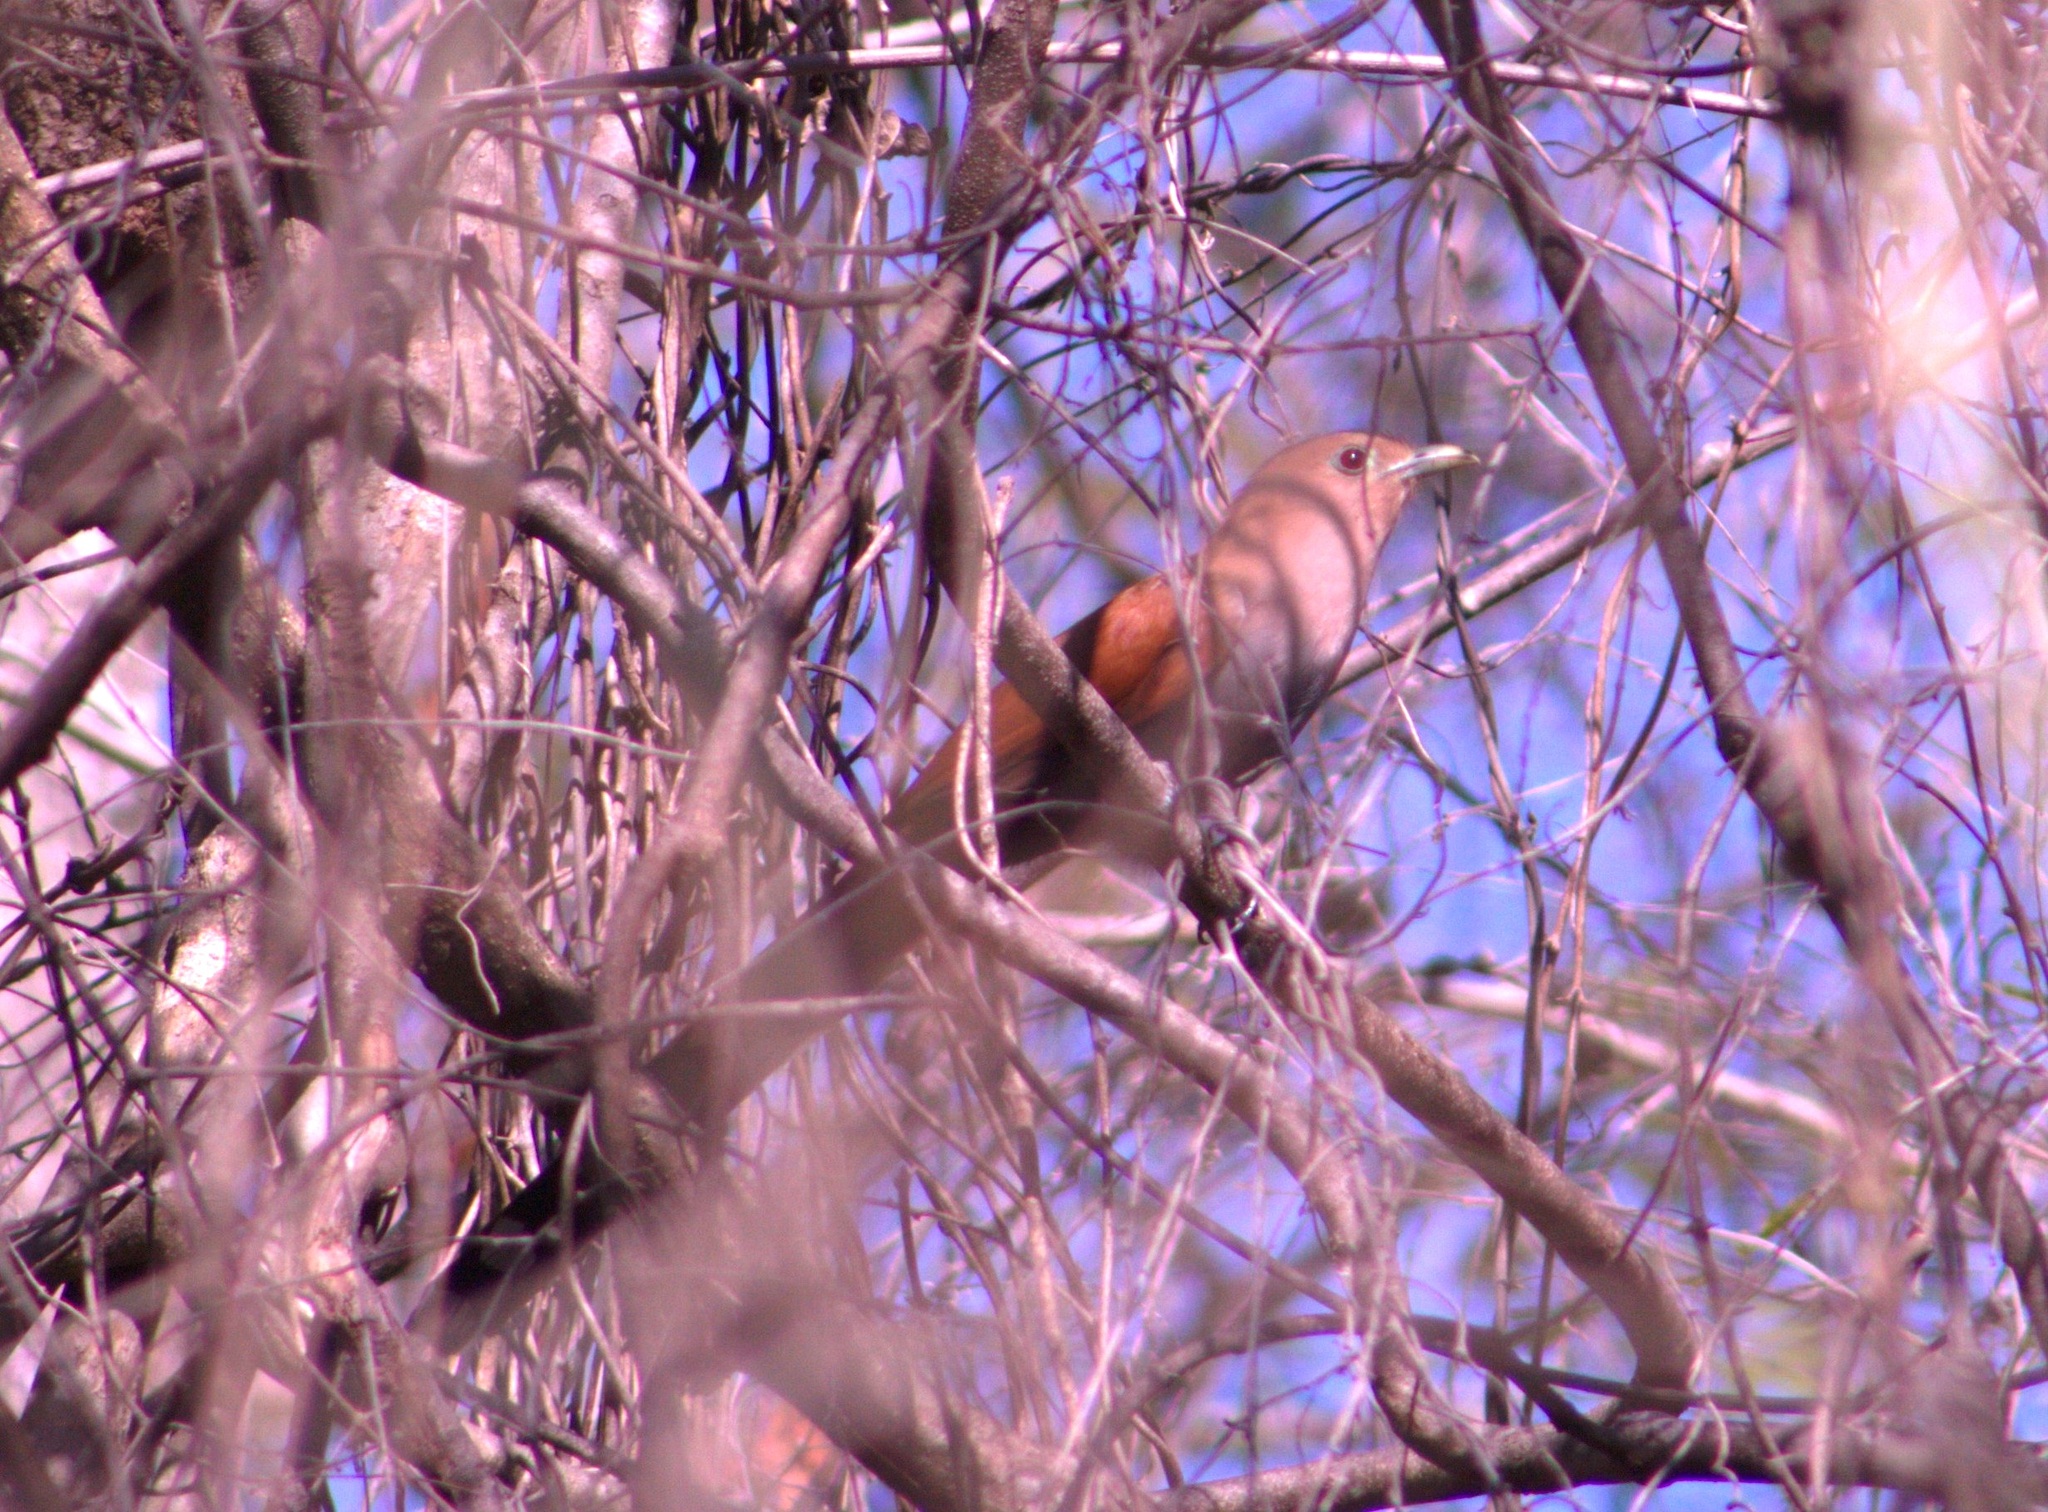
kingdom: Animalia
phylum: Chordata
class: Aves
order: Cuculiformes
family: Cuculidae
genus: Piaya
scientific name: Piaya cayana
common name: Squirrel cuckoo
